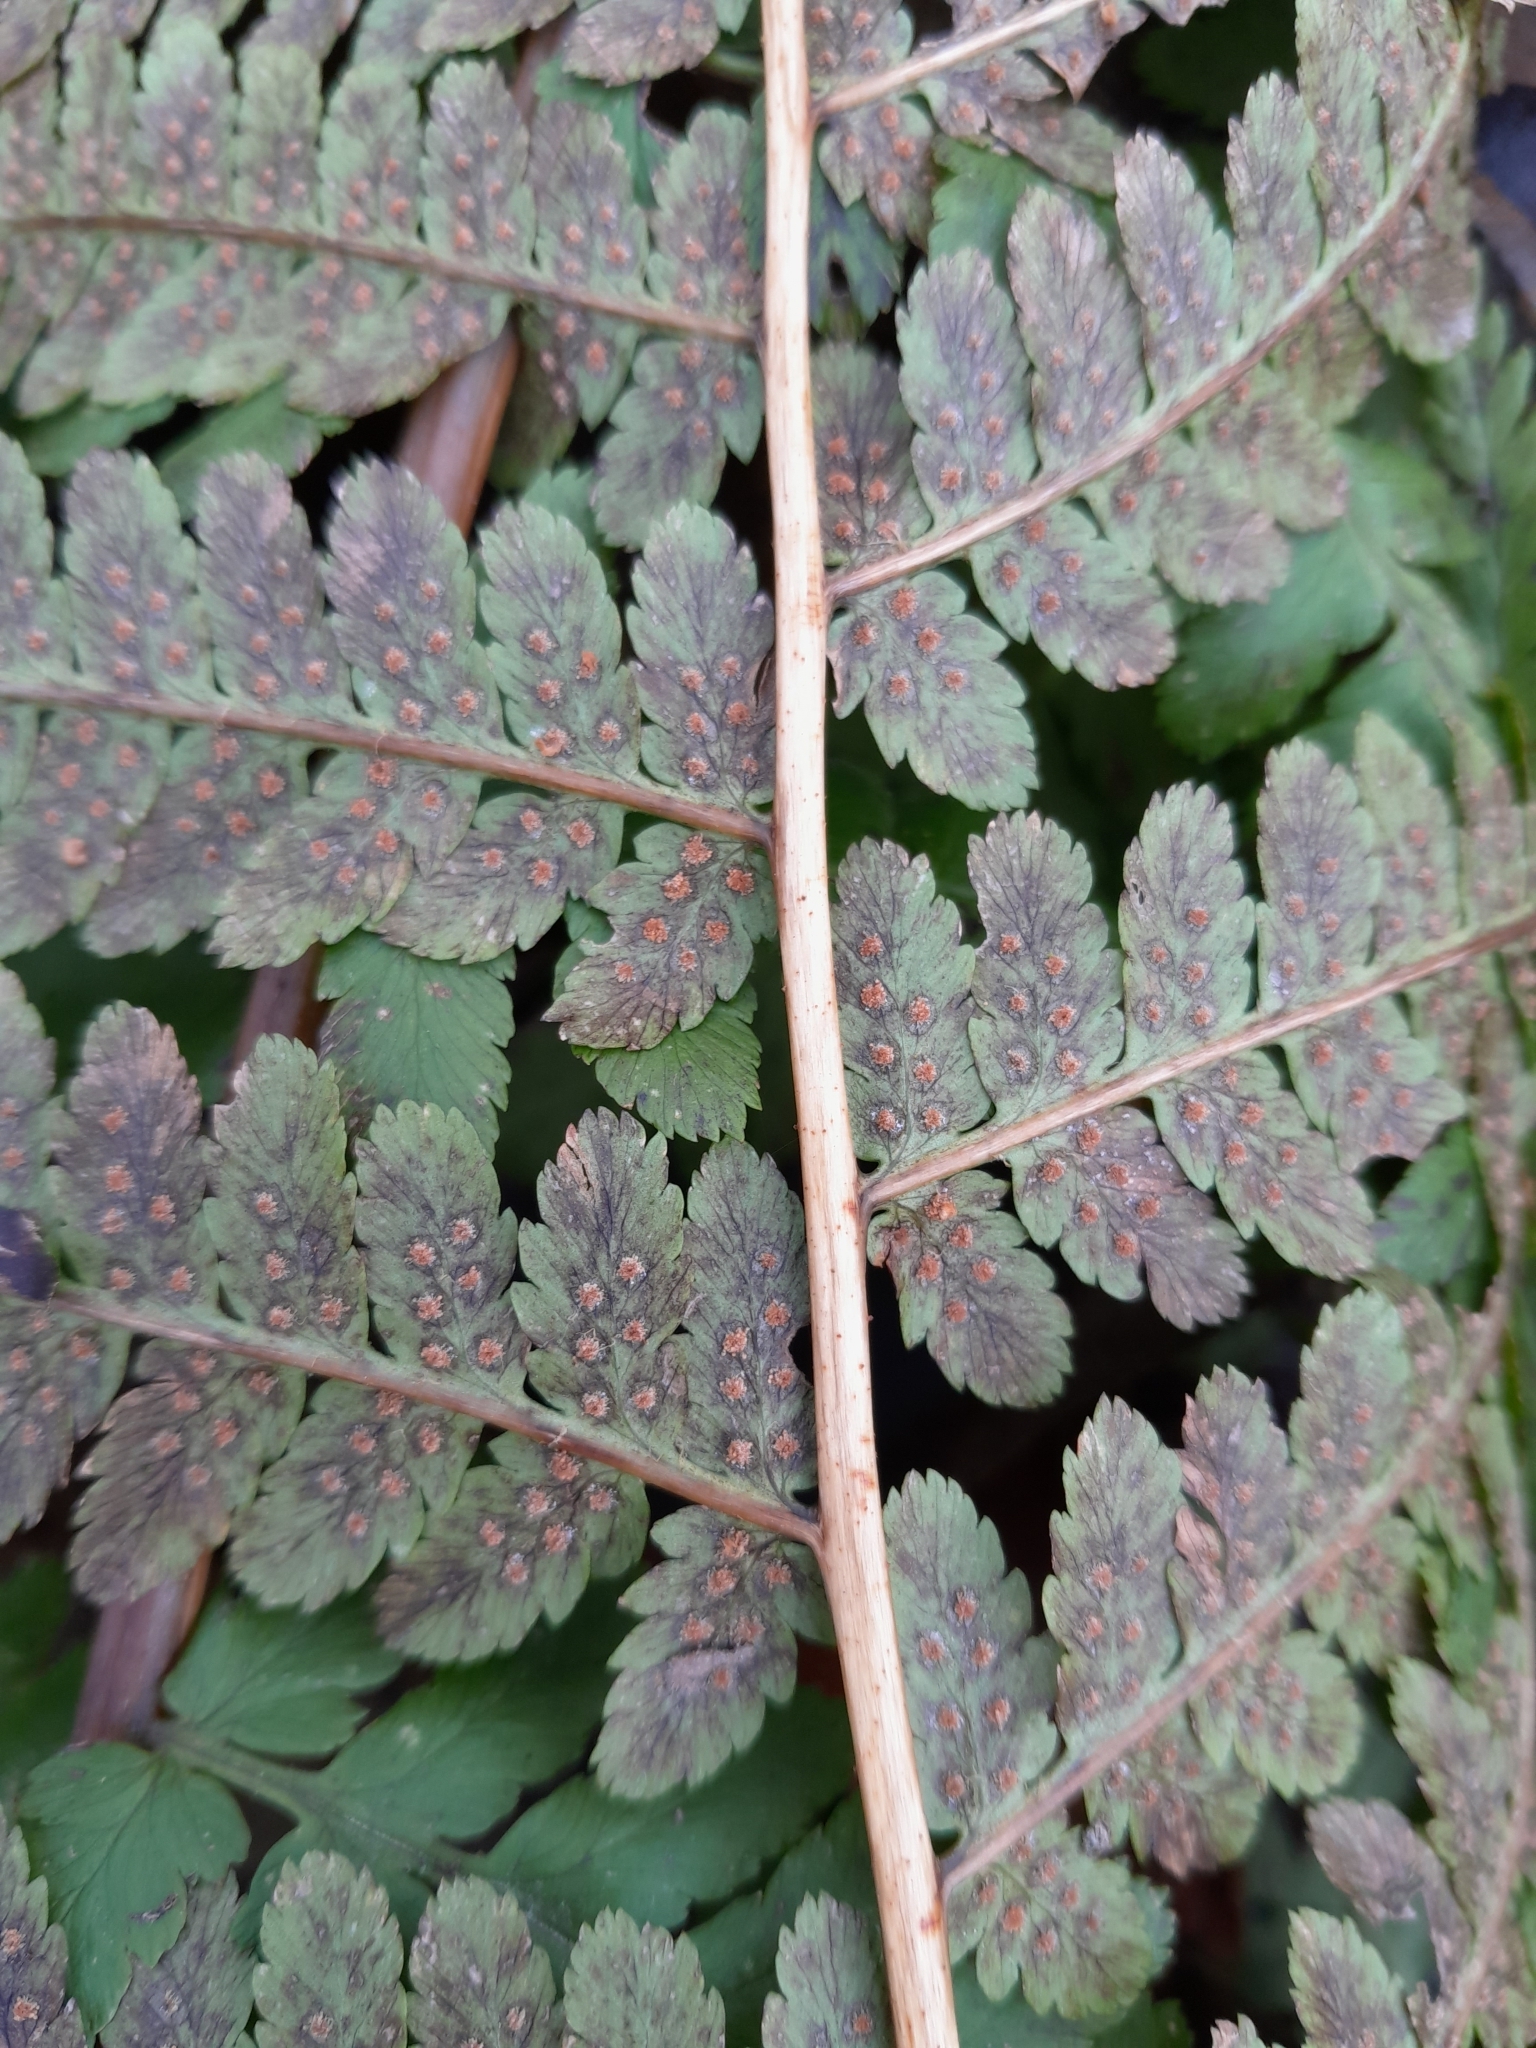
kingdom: Plantae
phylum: Tracheophyta
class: Polypodiopsida
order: Polypodiales
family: Dryopteridaceae
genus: Dryopteris
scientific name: Dryopteris filix-mas
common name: Male fern
